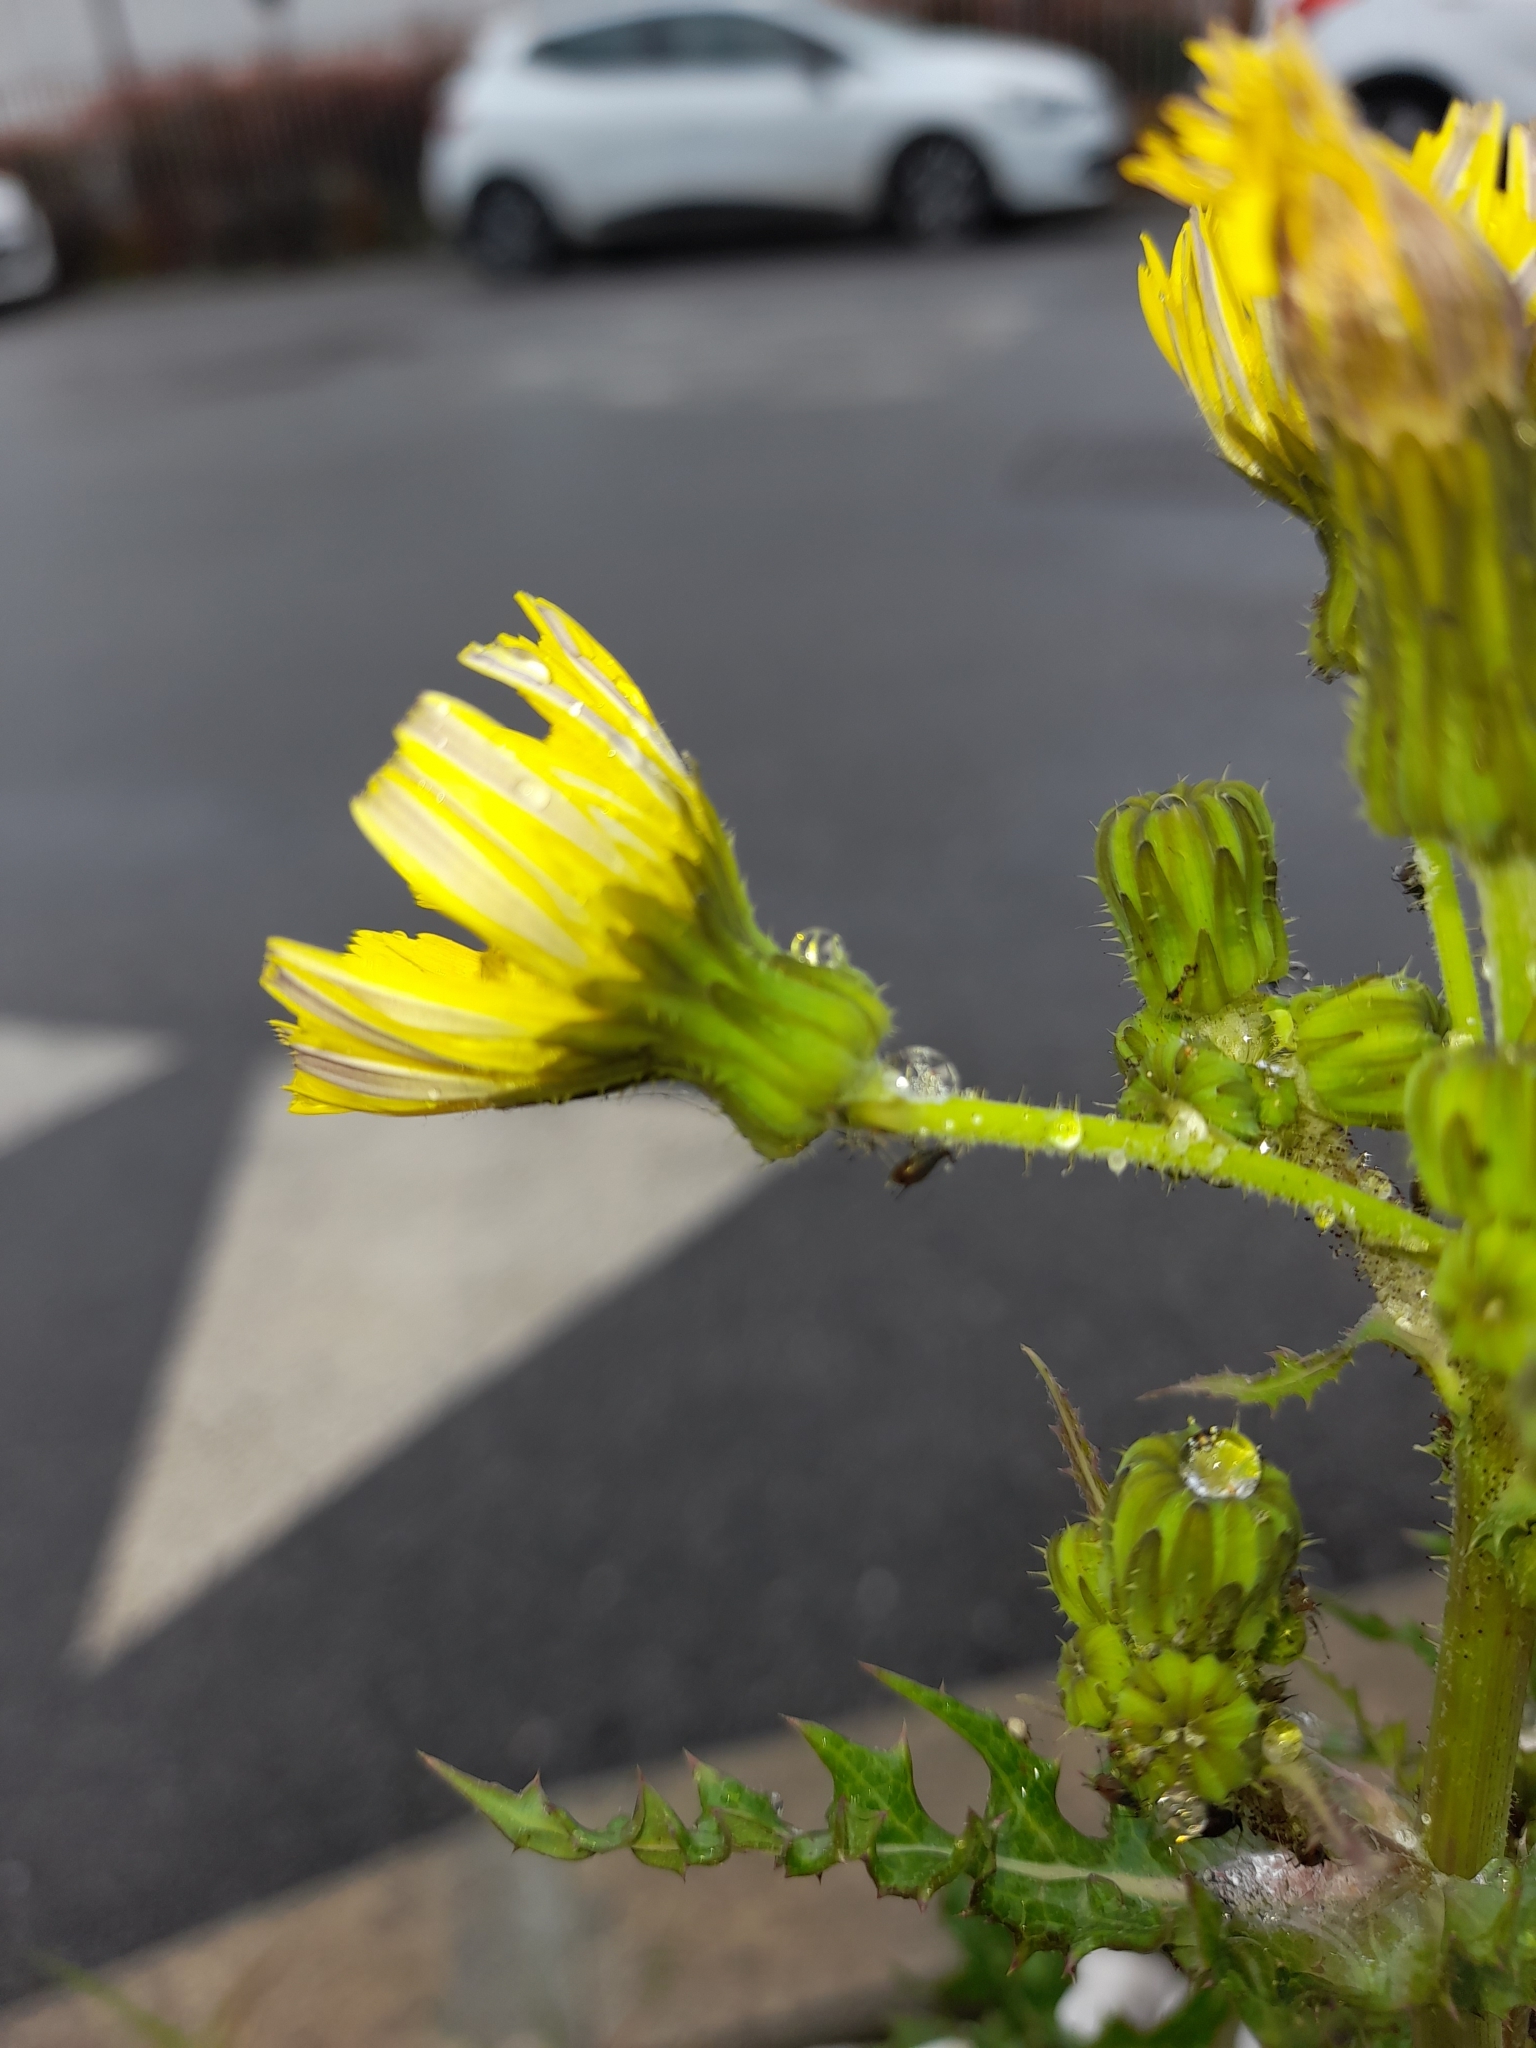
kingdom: Plantae
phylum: Tracheophyta
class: Magnoliopsida
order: Asterales
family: Asteraceae
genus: Sonchus
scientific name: Sonchus asper
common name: Prickly sow-thistle
